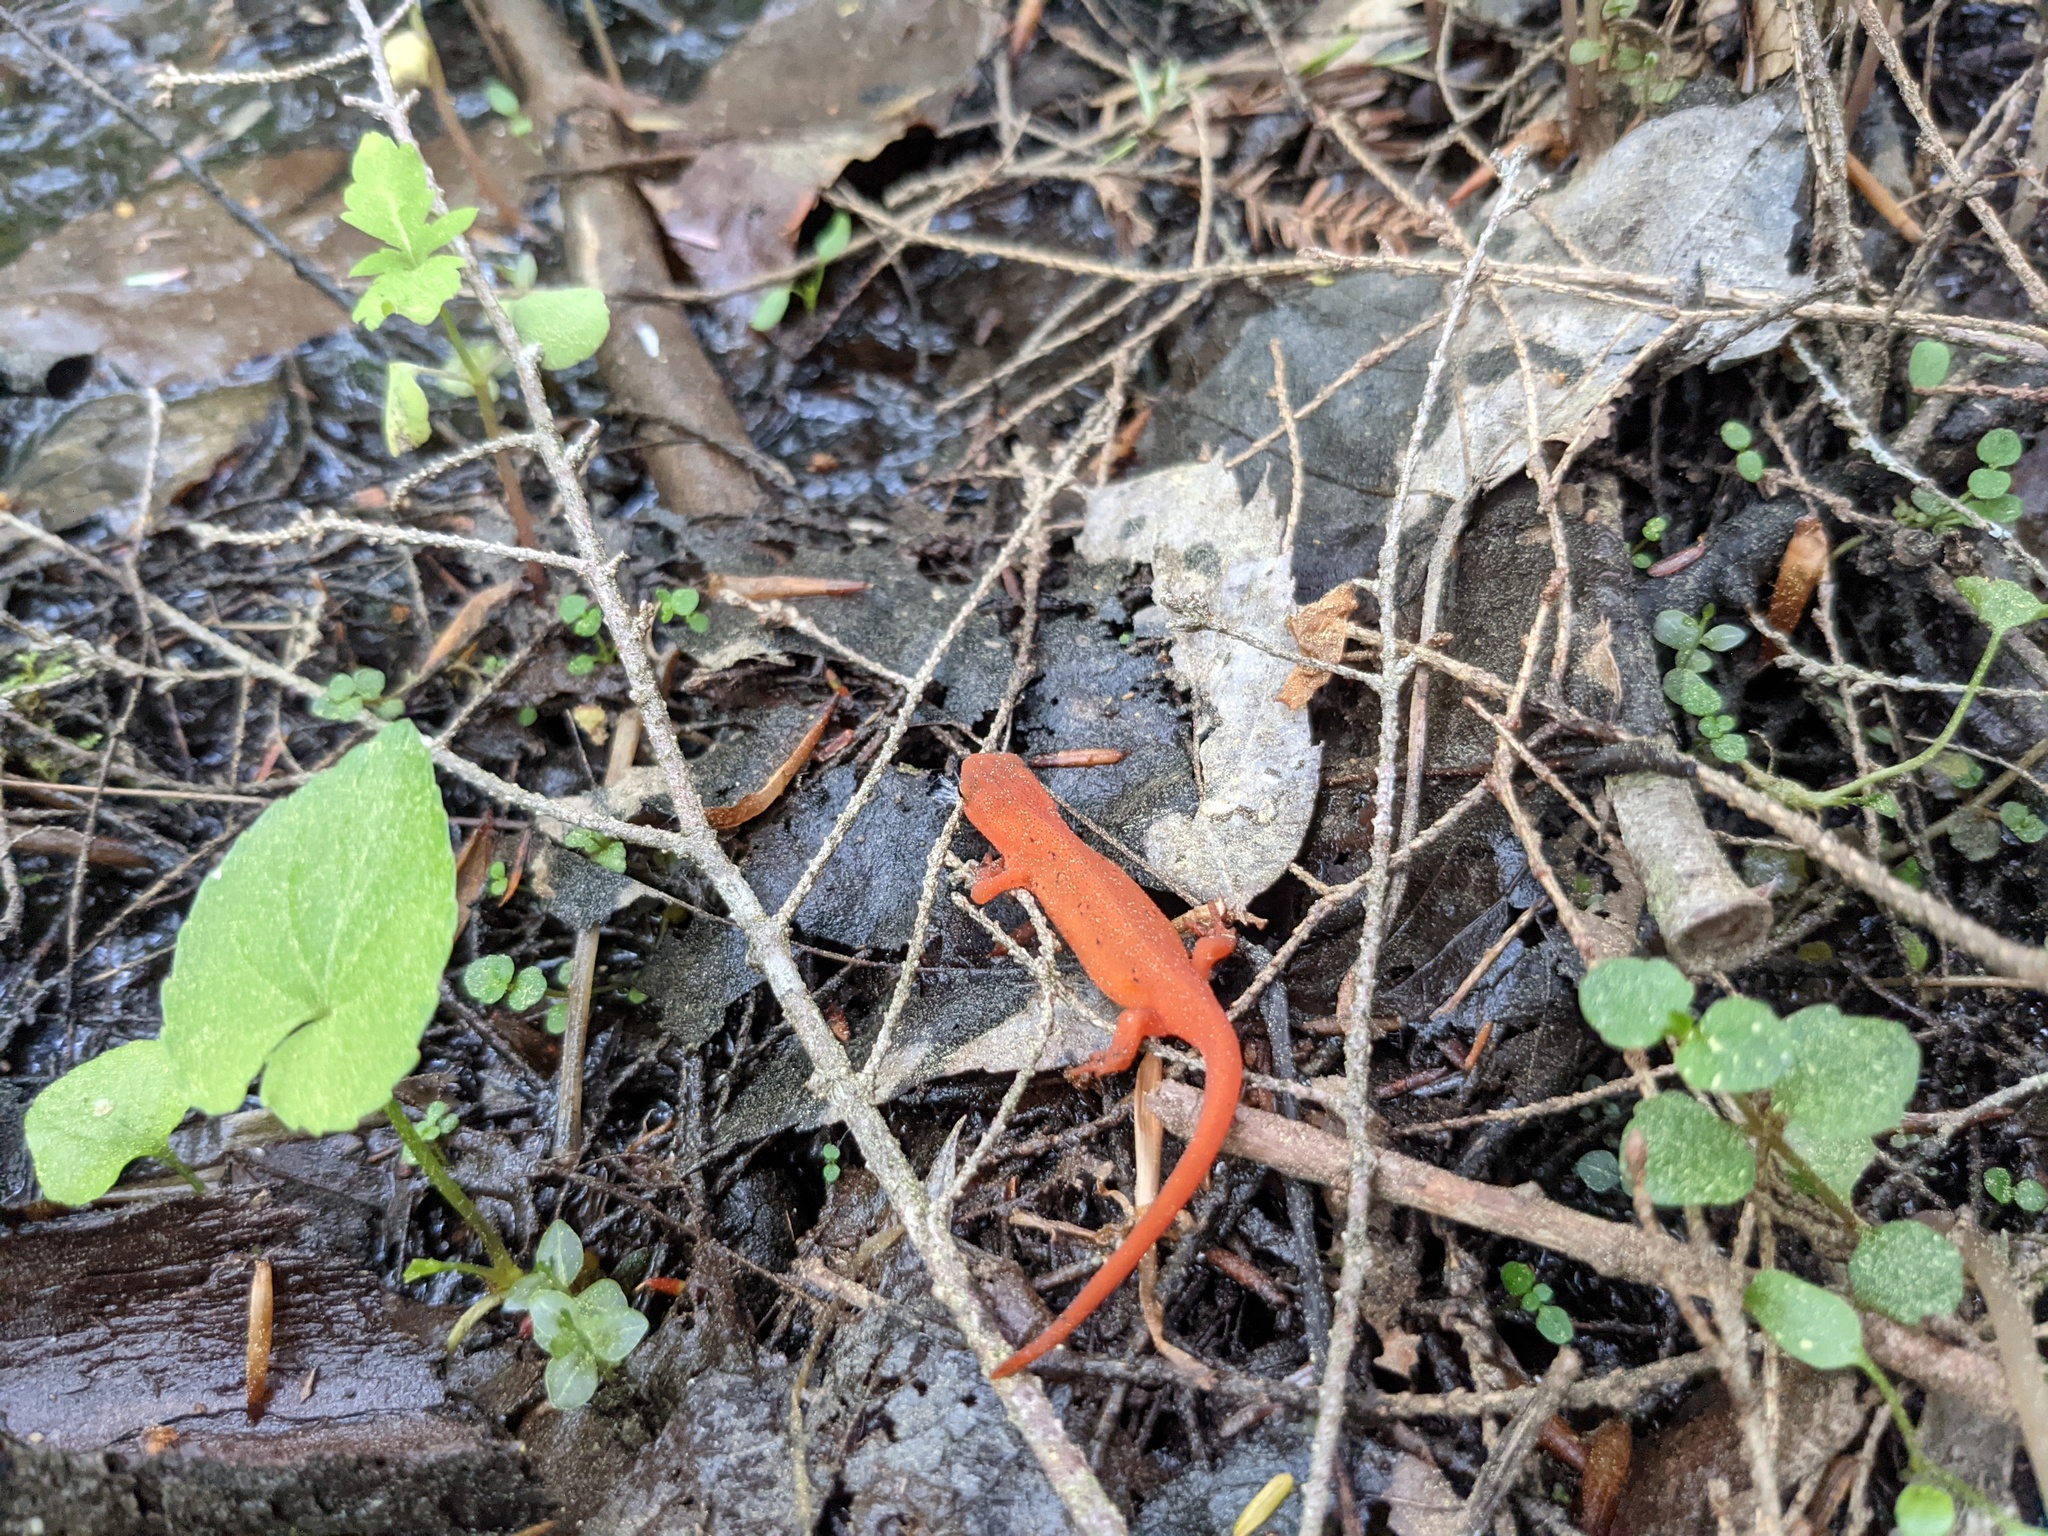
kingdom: Animalia
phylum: Chordata
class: Amphibia
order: Caudata
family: Salamandridae
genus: Notophthalmus
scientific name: Notophthalmus viridescens
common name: Eastern newt
